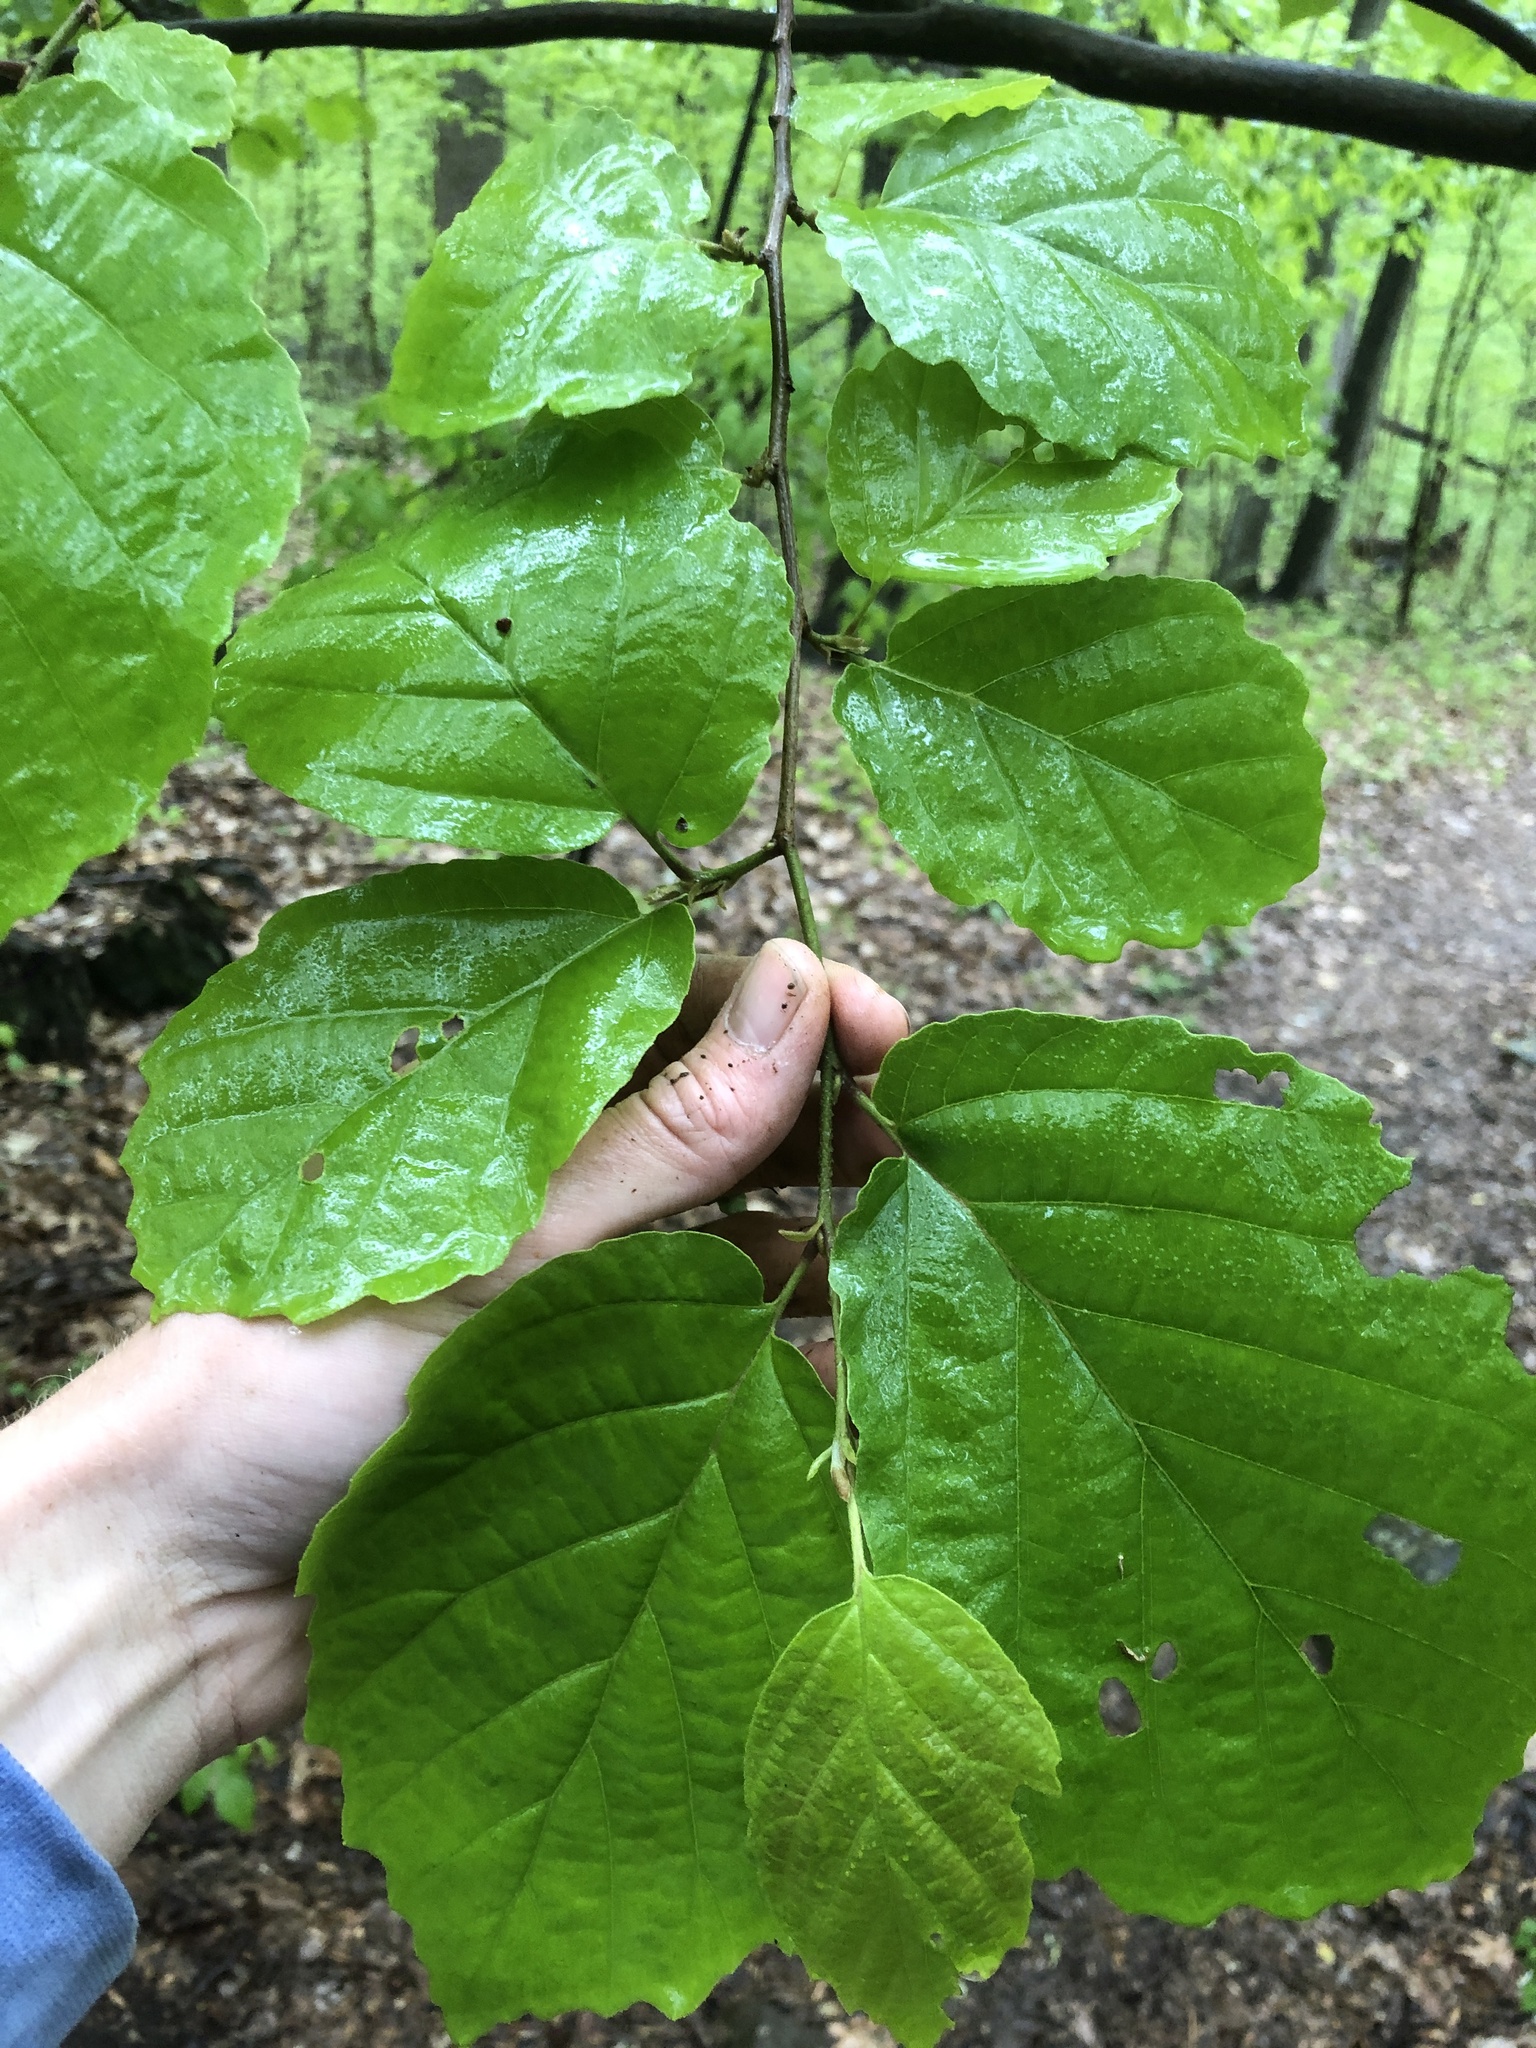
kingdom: Plantae
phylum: Tracheophyta
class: Magnoliopsida
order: Saxifragales
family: Hamamelidaceae
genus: Hamamelis
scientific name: Hamamelis virginiana
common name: Witch-hazel
